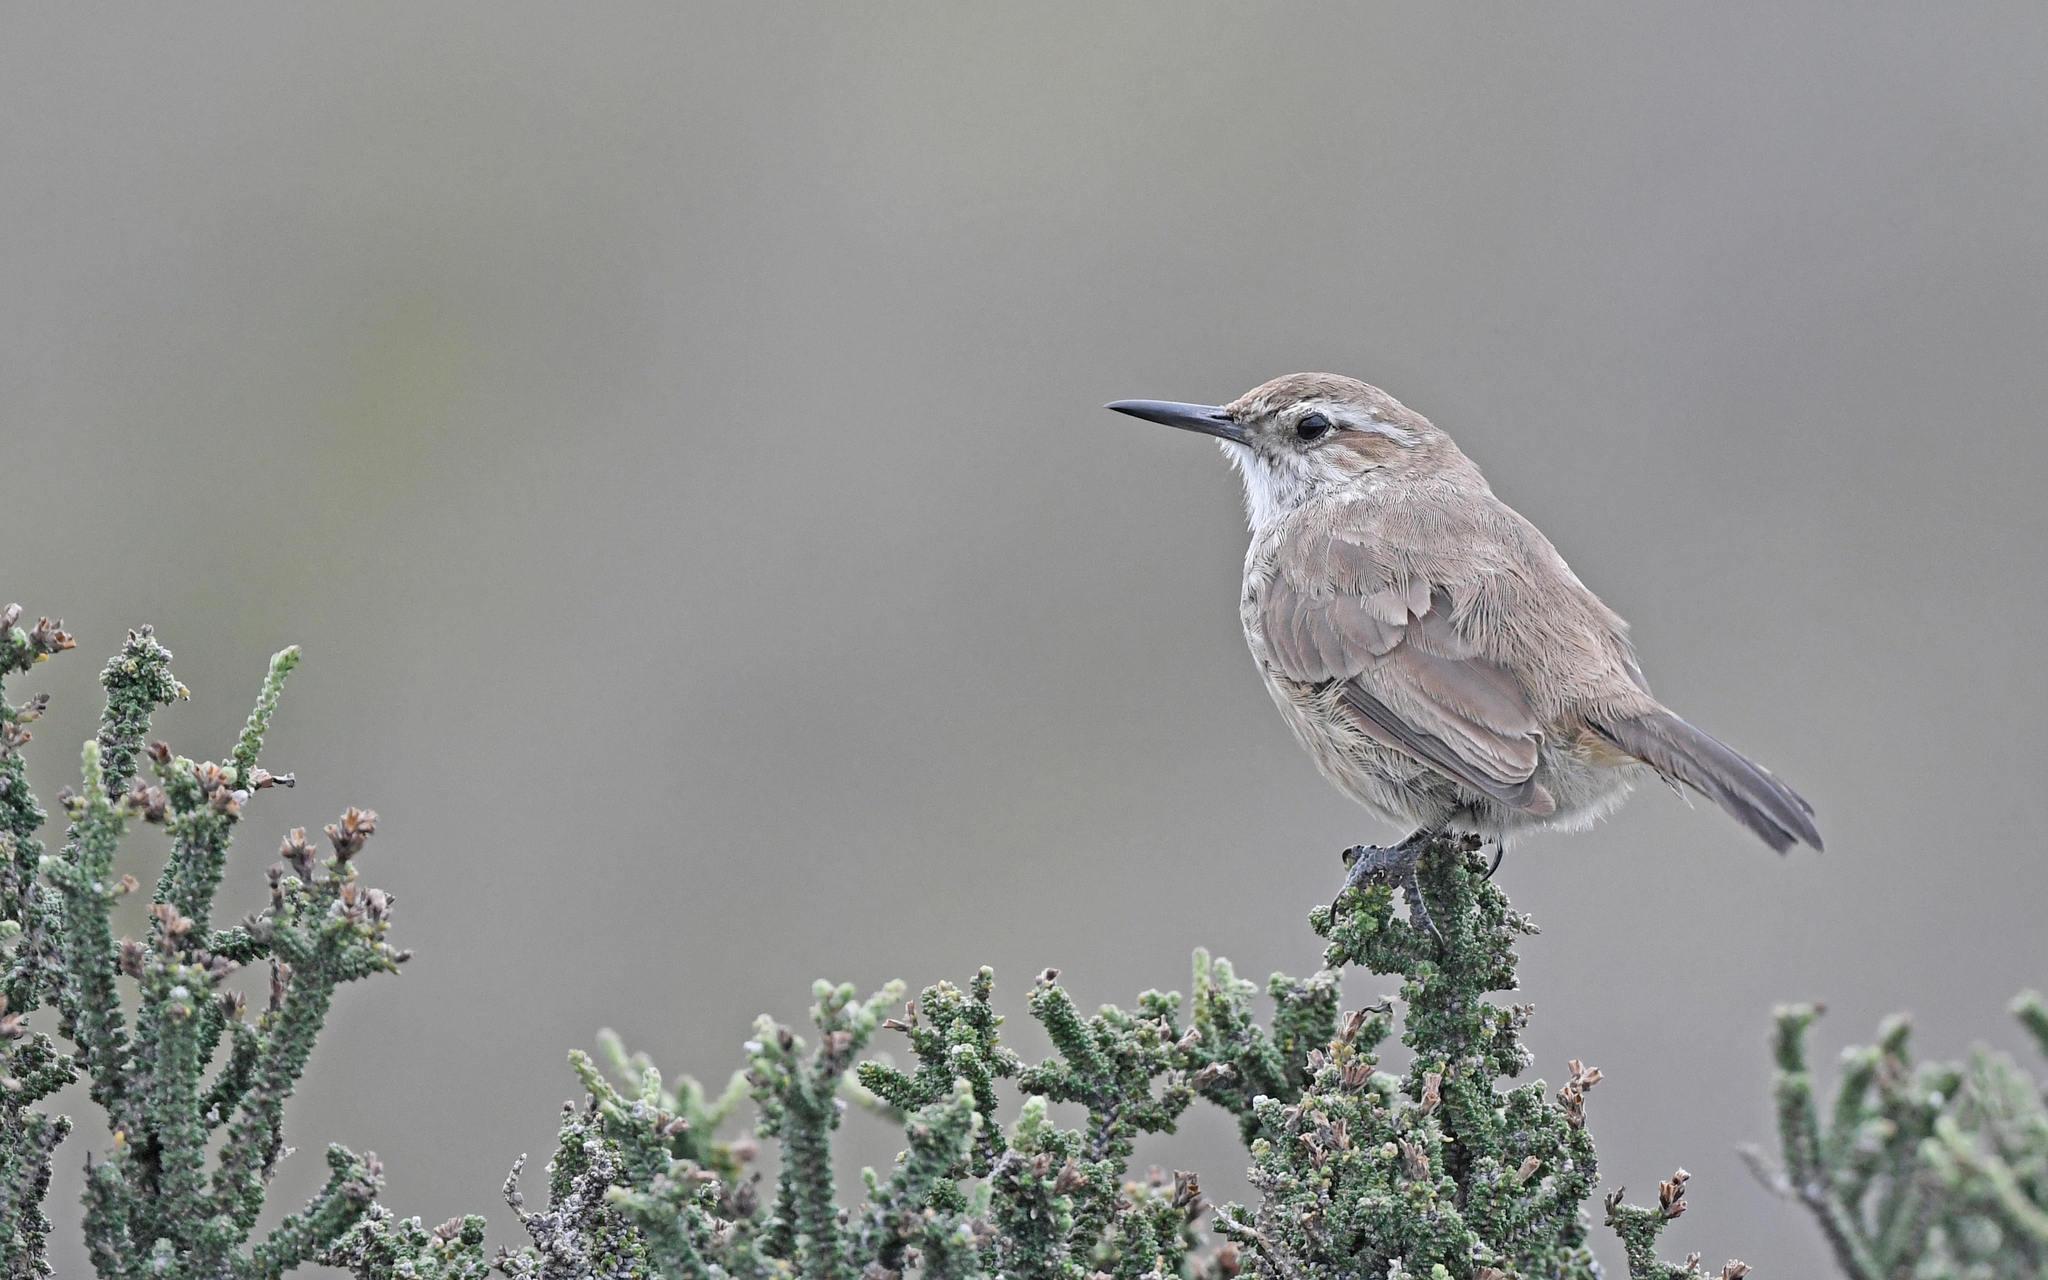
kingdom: Animalia
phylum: Chordata
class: Aves
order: Passeriformes
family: Furnariidae
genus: Eremobius
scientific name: Eremobius phoenicurus
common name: Band-tailed eremobius
